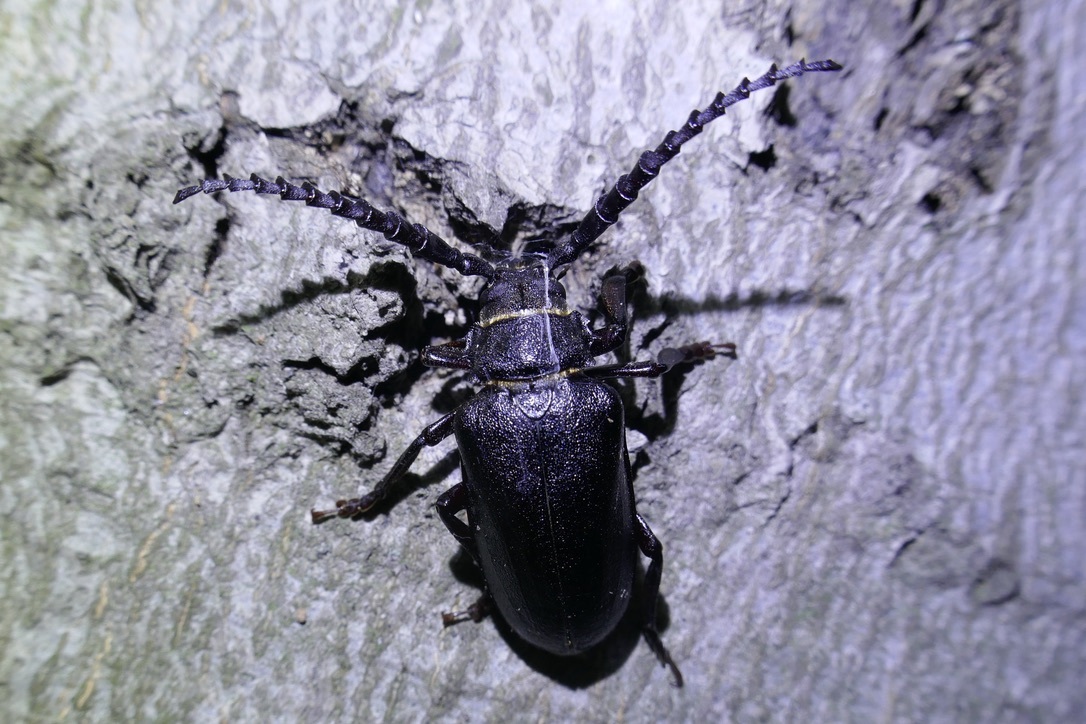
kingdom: Animalia
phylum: Arthropoda
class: Insecta
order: Coleoptera
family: Cerambycidae
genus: Prionus
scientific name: Prionus coriarius
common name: Tanner beetle
